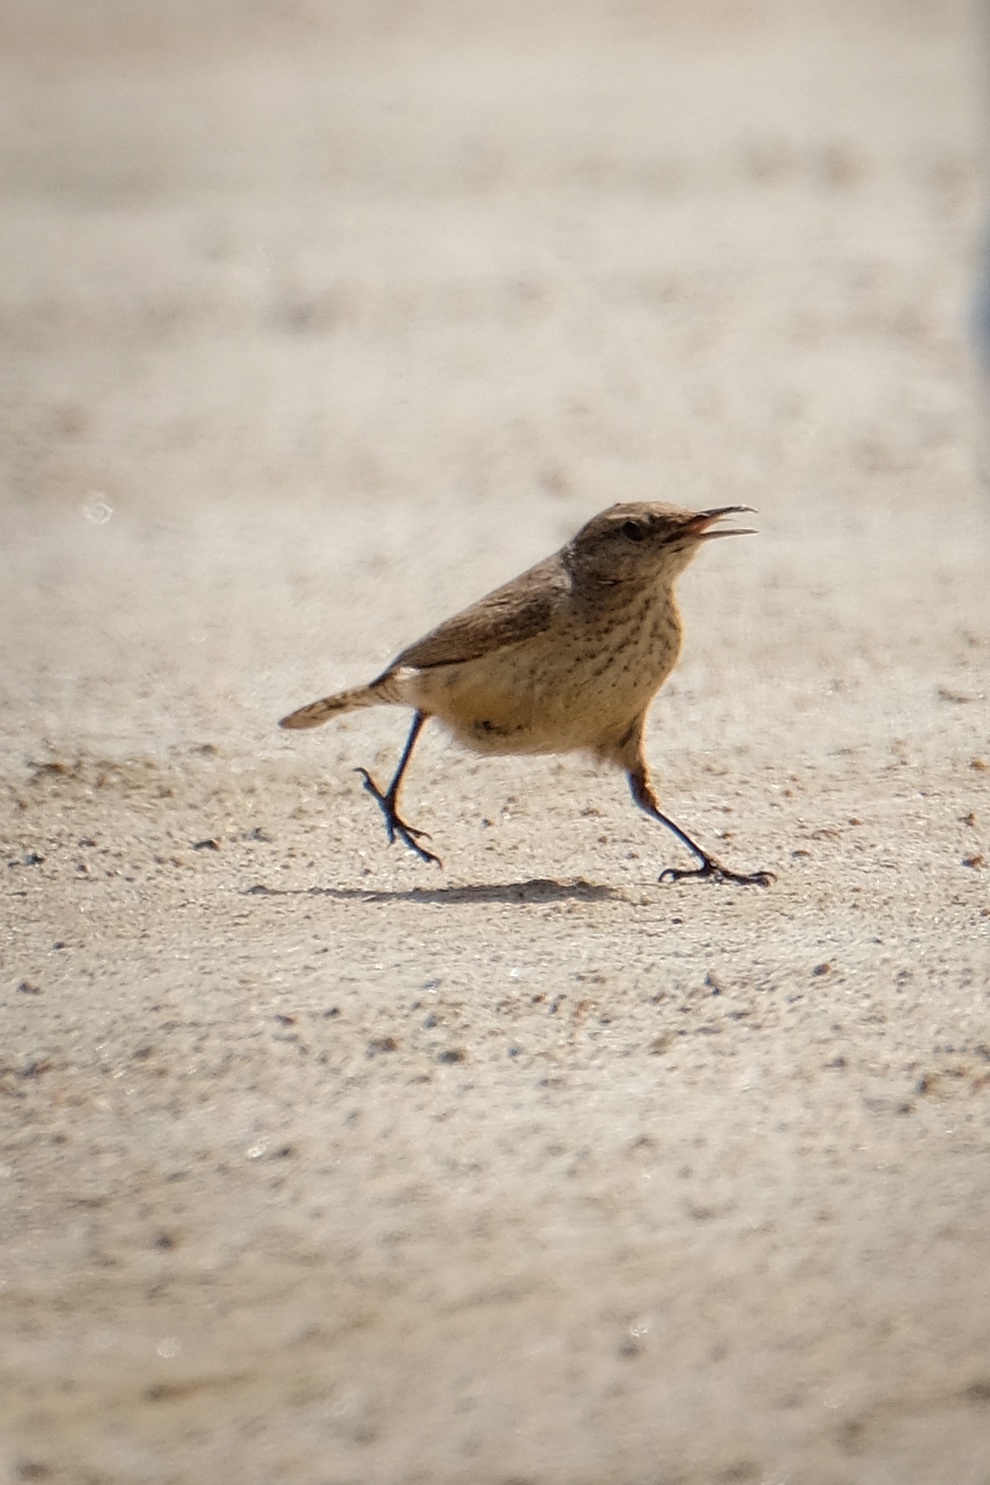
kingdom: Animalia
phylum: Chordata
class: Aves
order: Passeriformes
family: Troglodytidae
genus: Salpinctes
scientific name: Salpinctes obsoletus
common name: Rock wren
